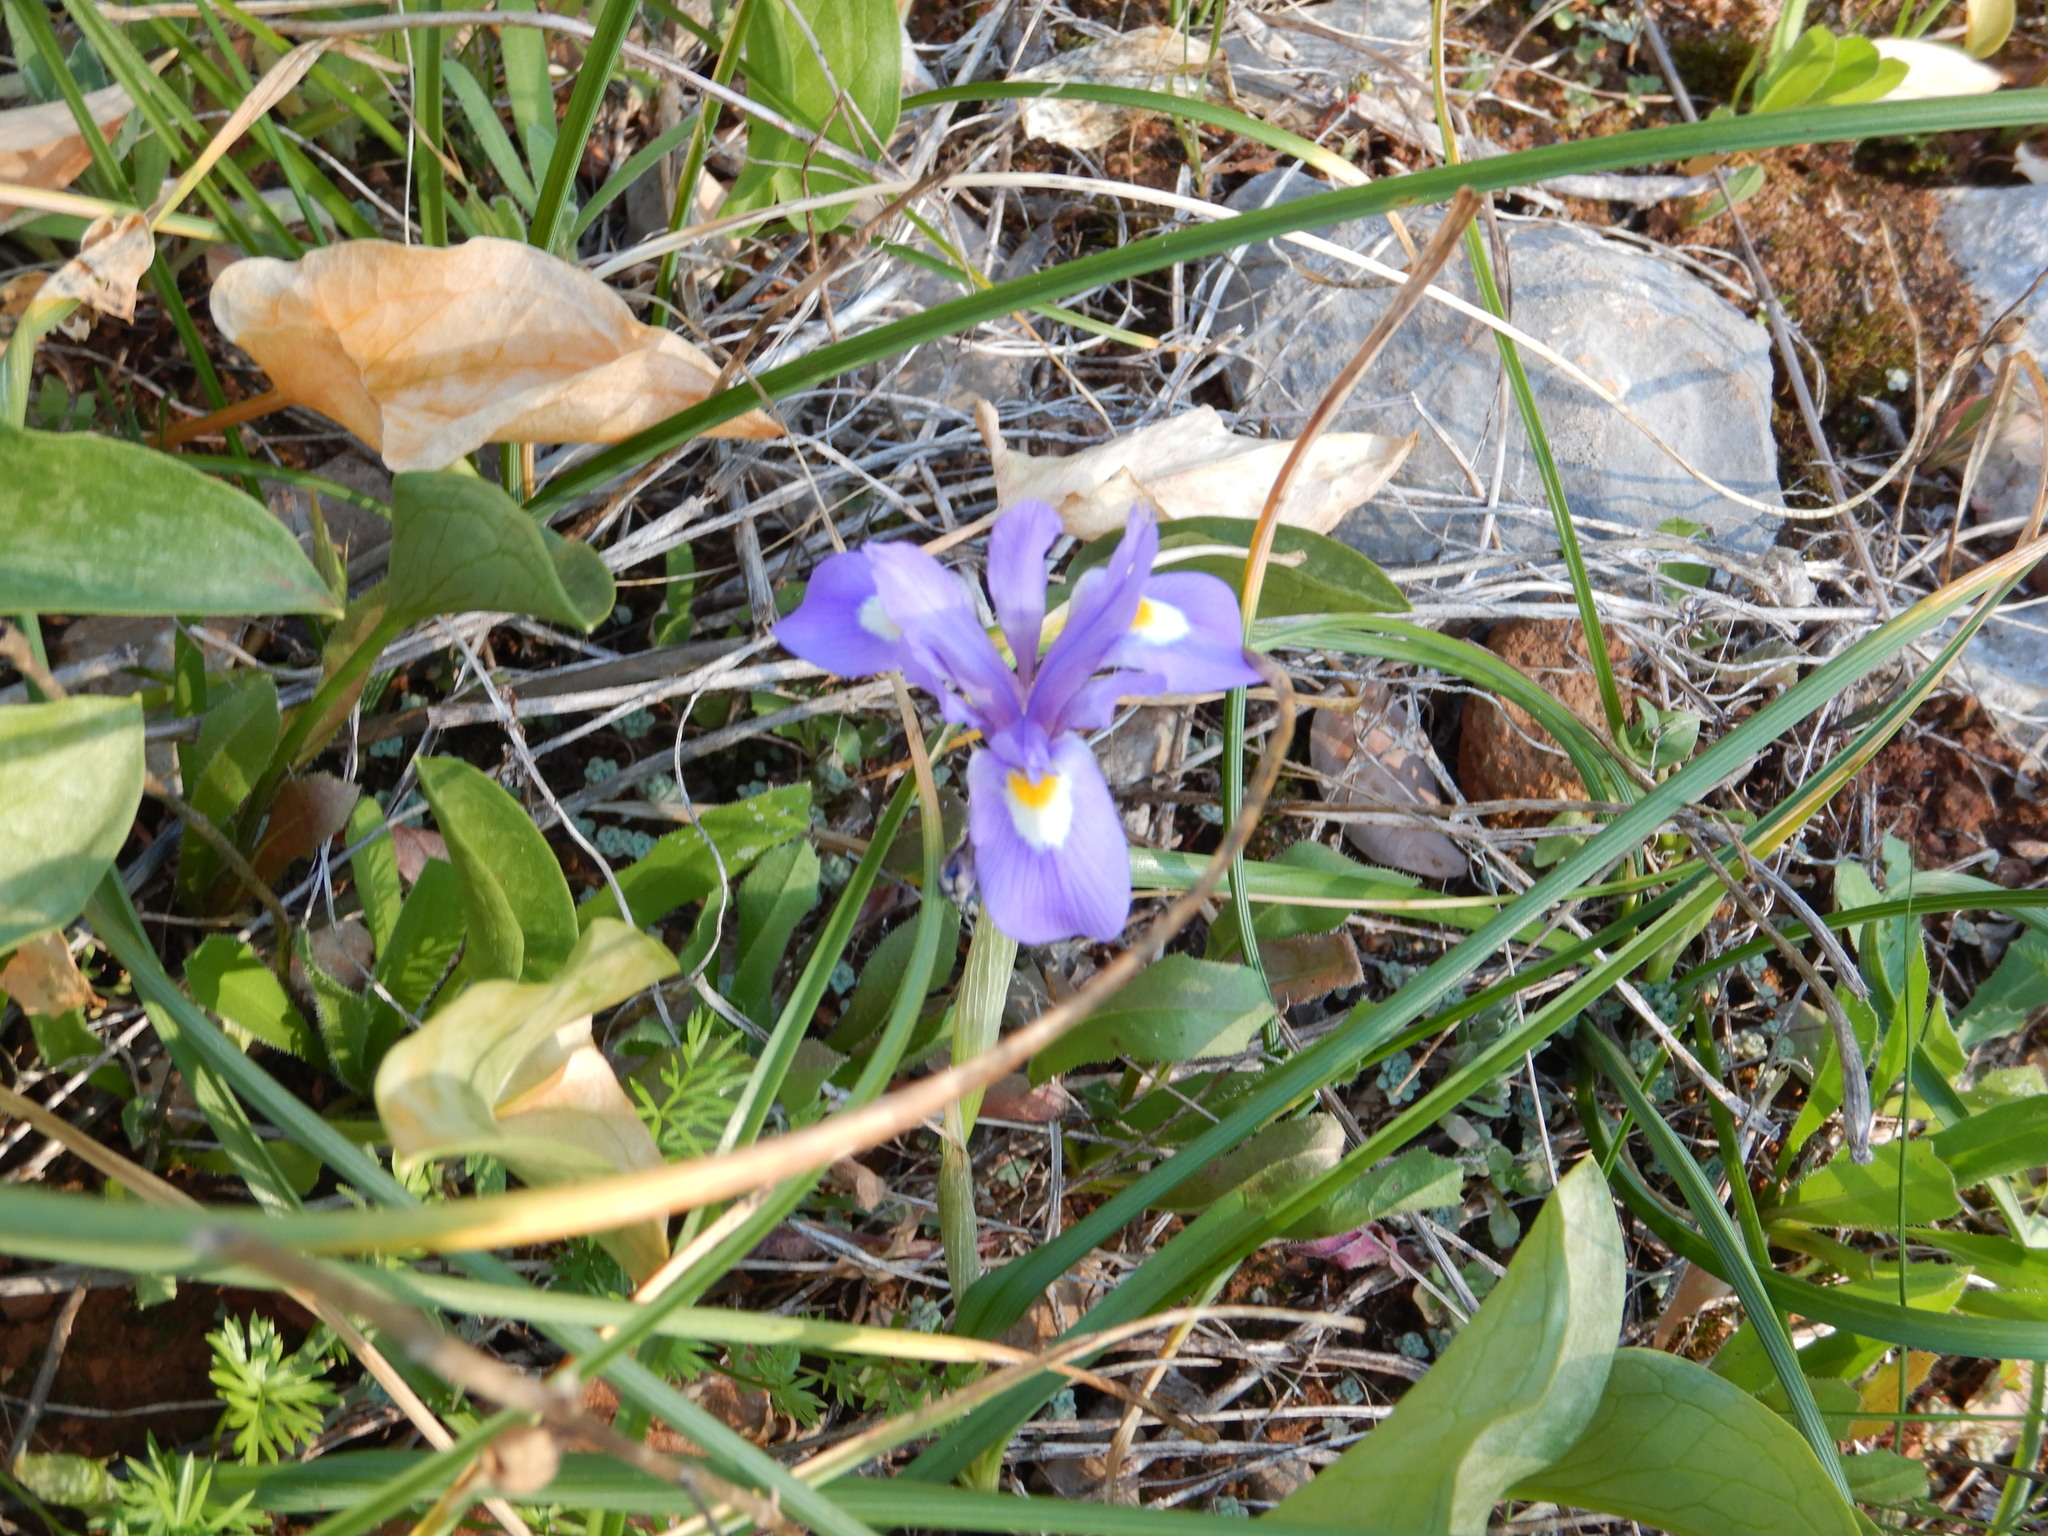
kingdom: Plantae
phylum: Tracheophyta
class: Liliopsida
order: Asparagales
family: Iridaceae
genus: Moraea
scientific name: Moraea sisyrinchium
